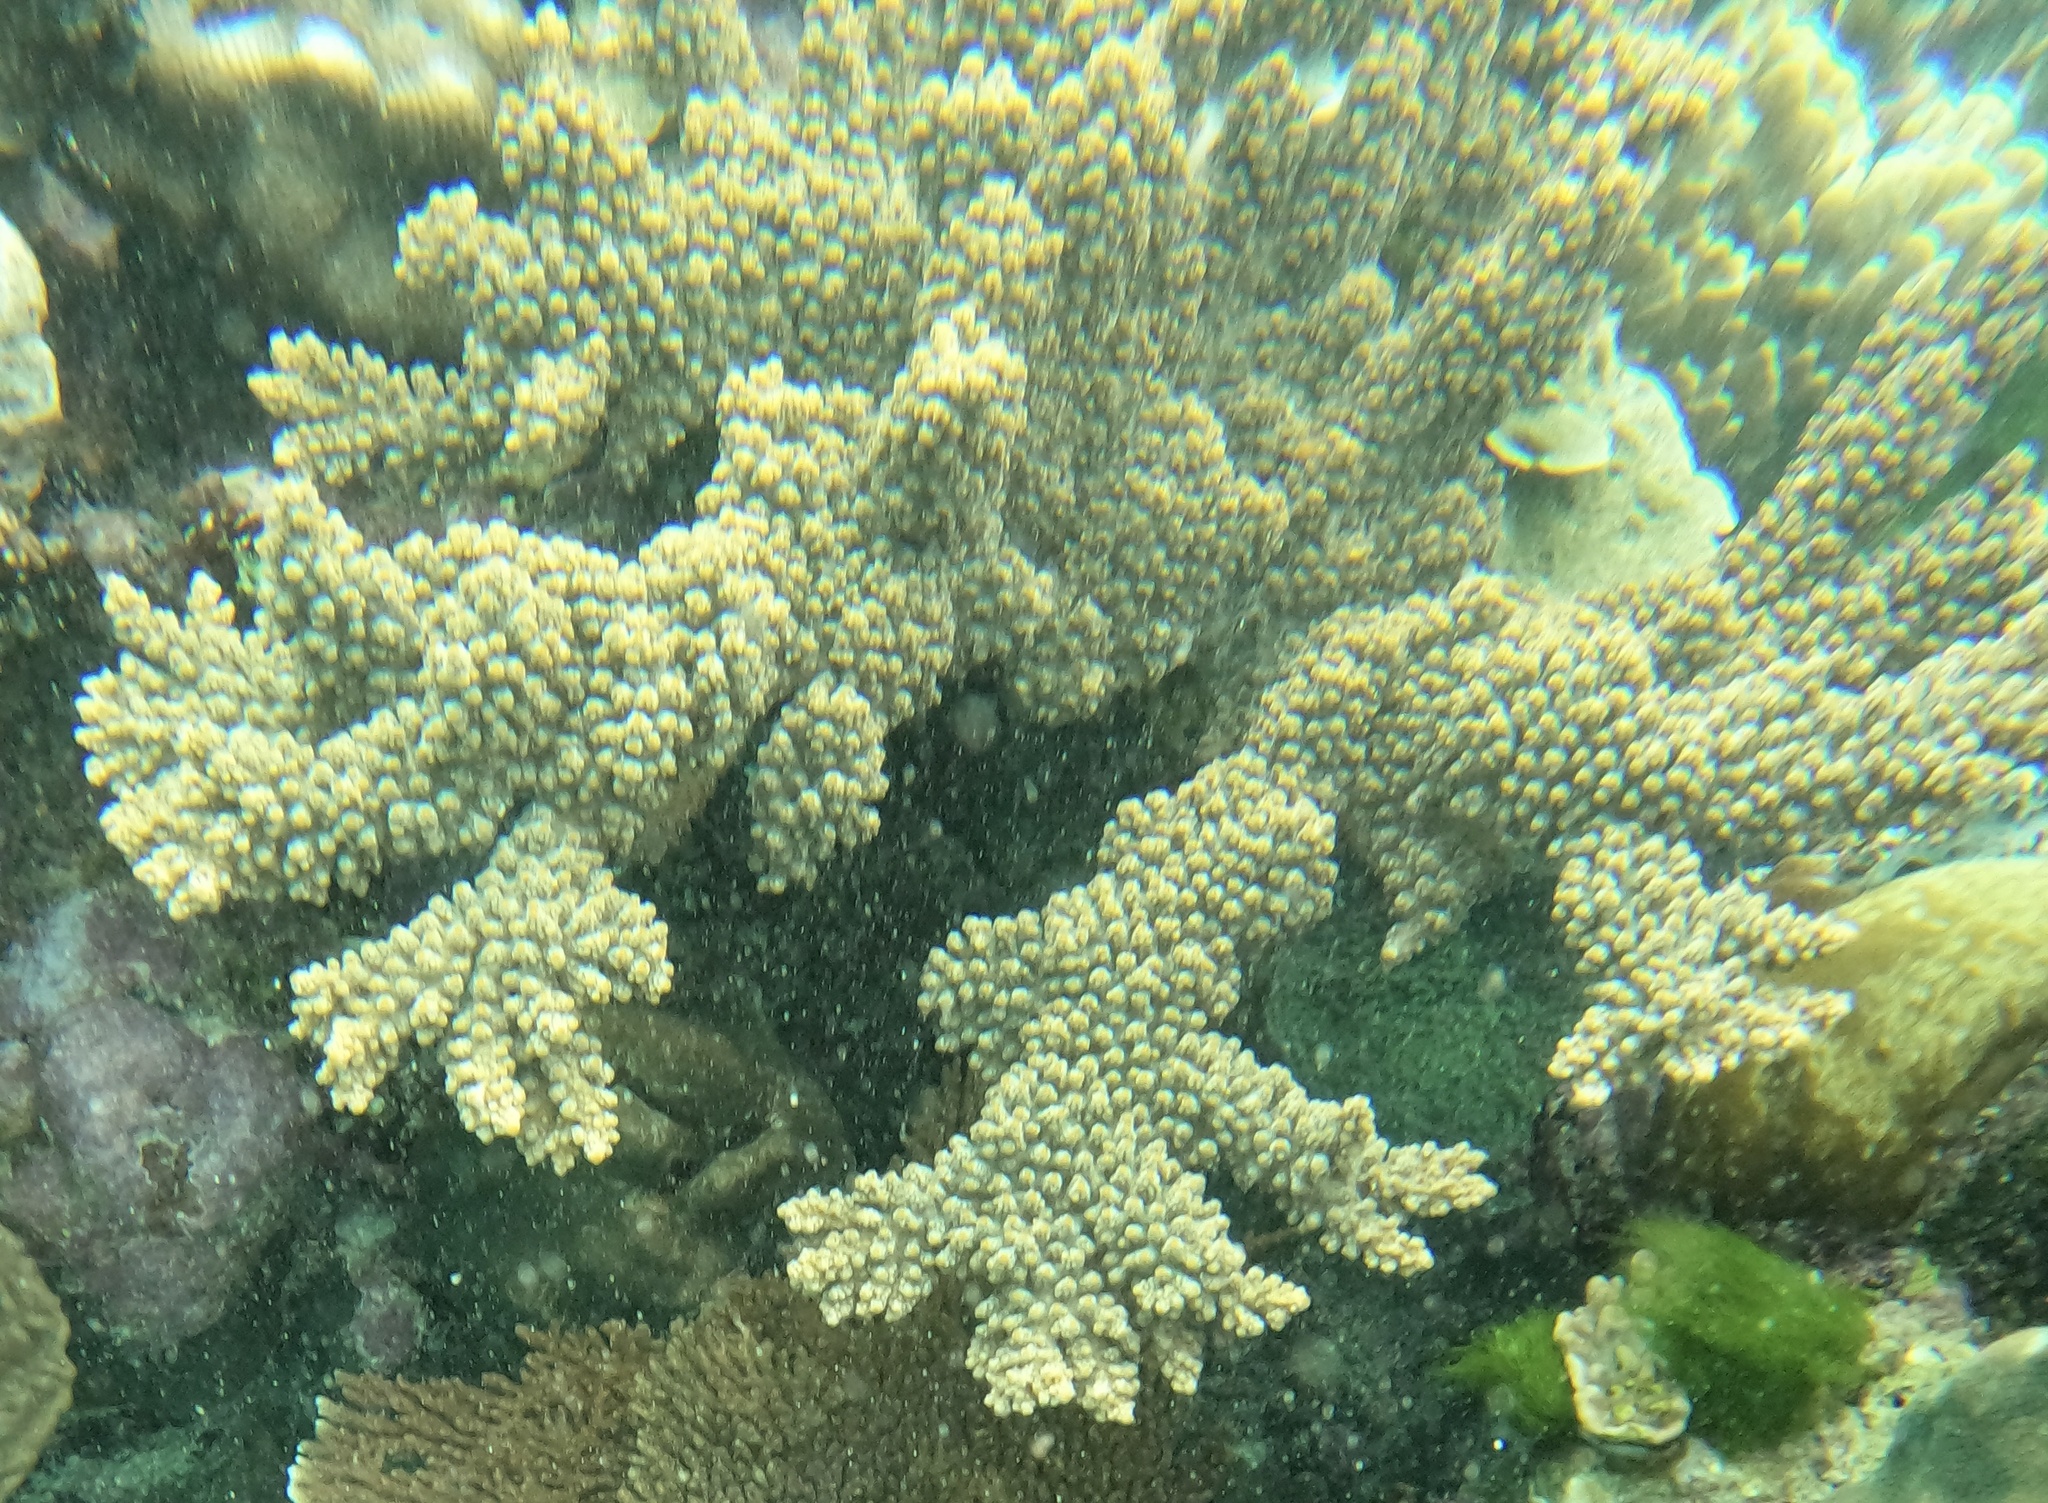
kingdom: Animalia
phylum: Cnidaria
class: Anthozoa
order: Scleractinia
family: Acroporidae
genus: Acropora
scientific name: Acropora florida
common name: Branch coral
